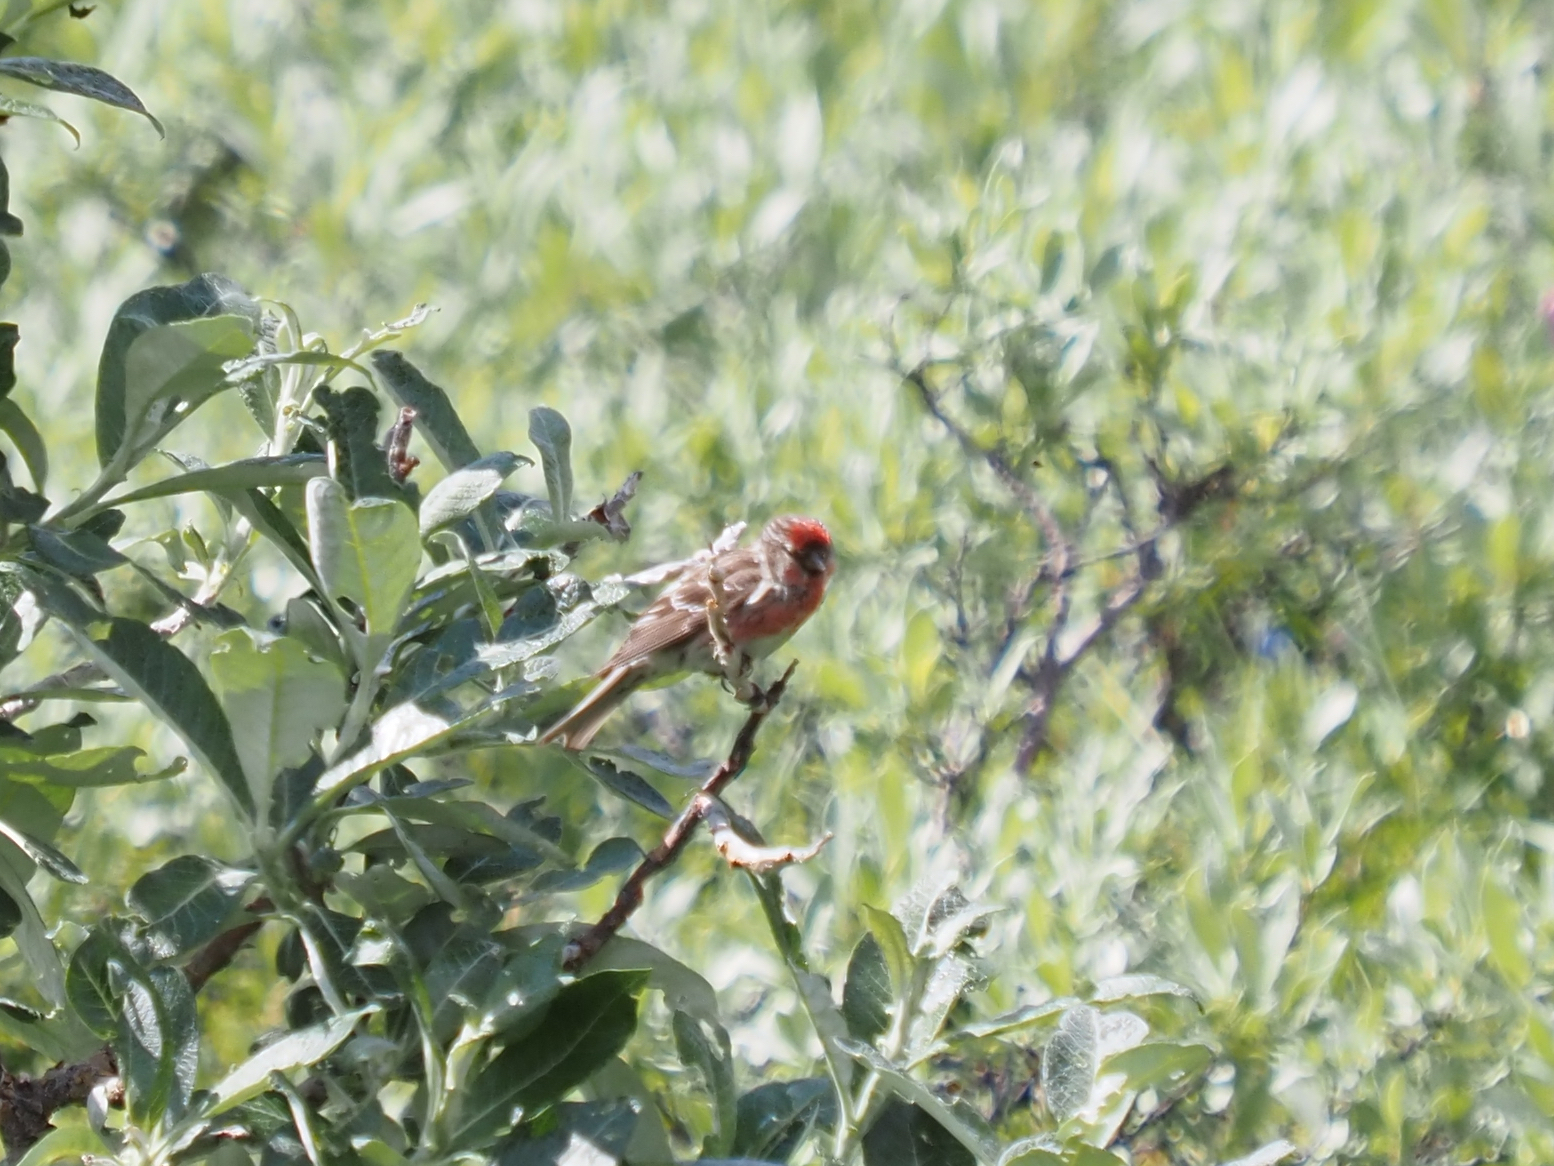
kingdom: Animalia
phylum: Chordata
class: Aves
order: Passeriformes
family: Fringillidae
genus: Acanthis
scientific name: Acanthis flammea
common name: Common redpoll
